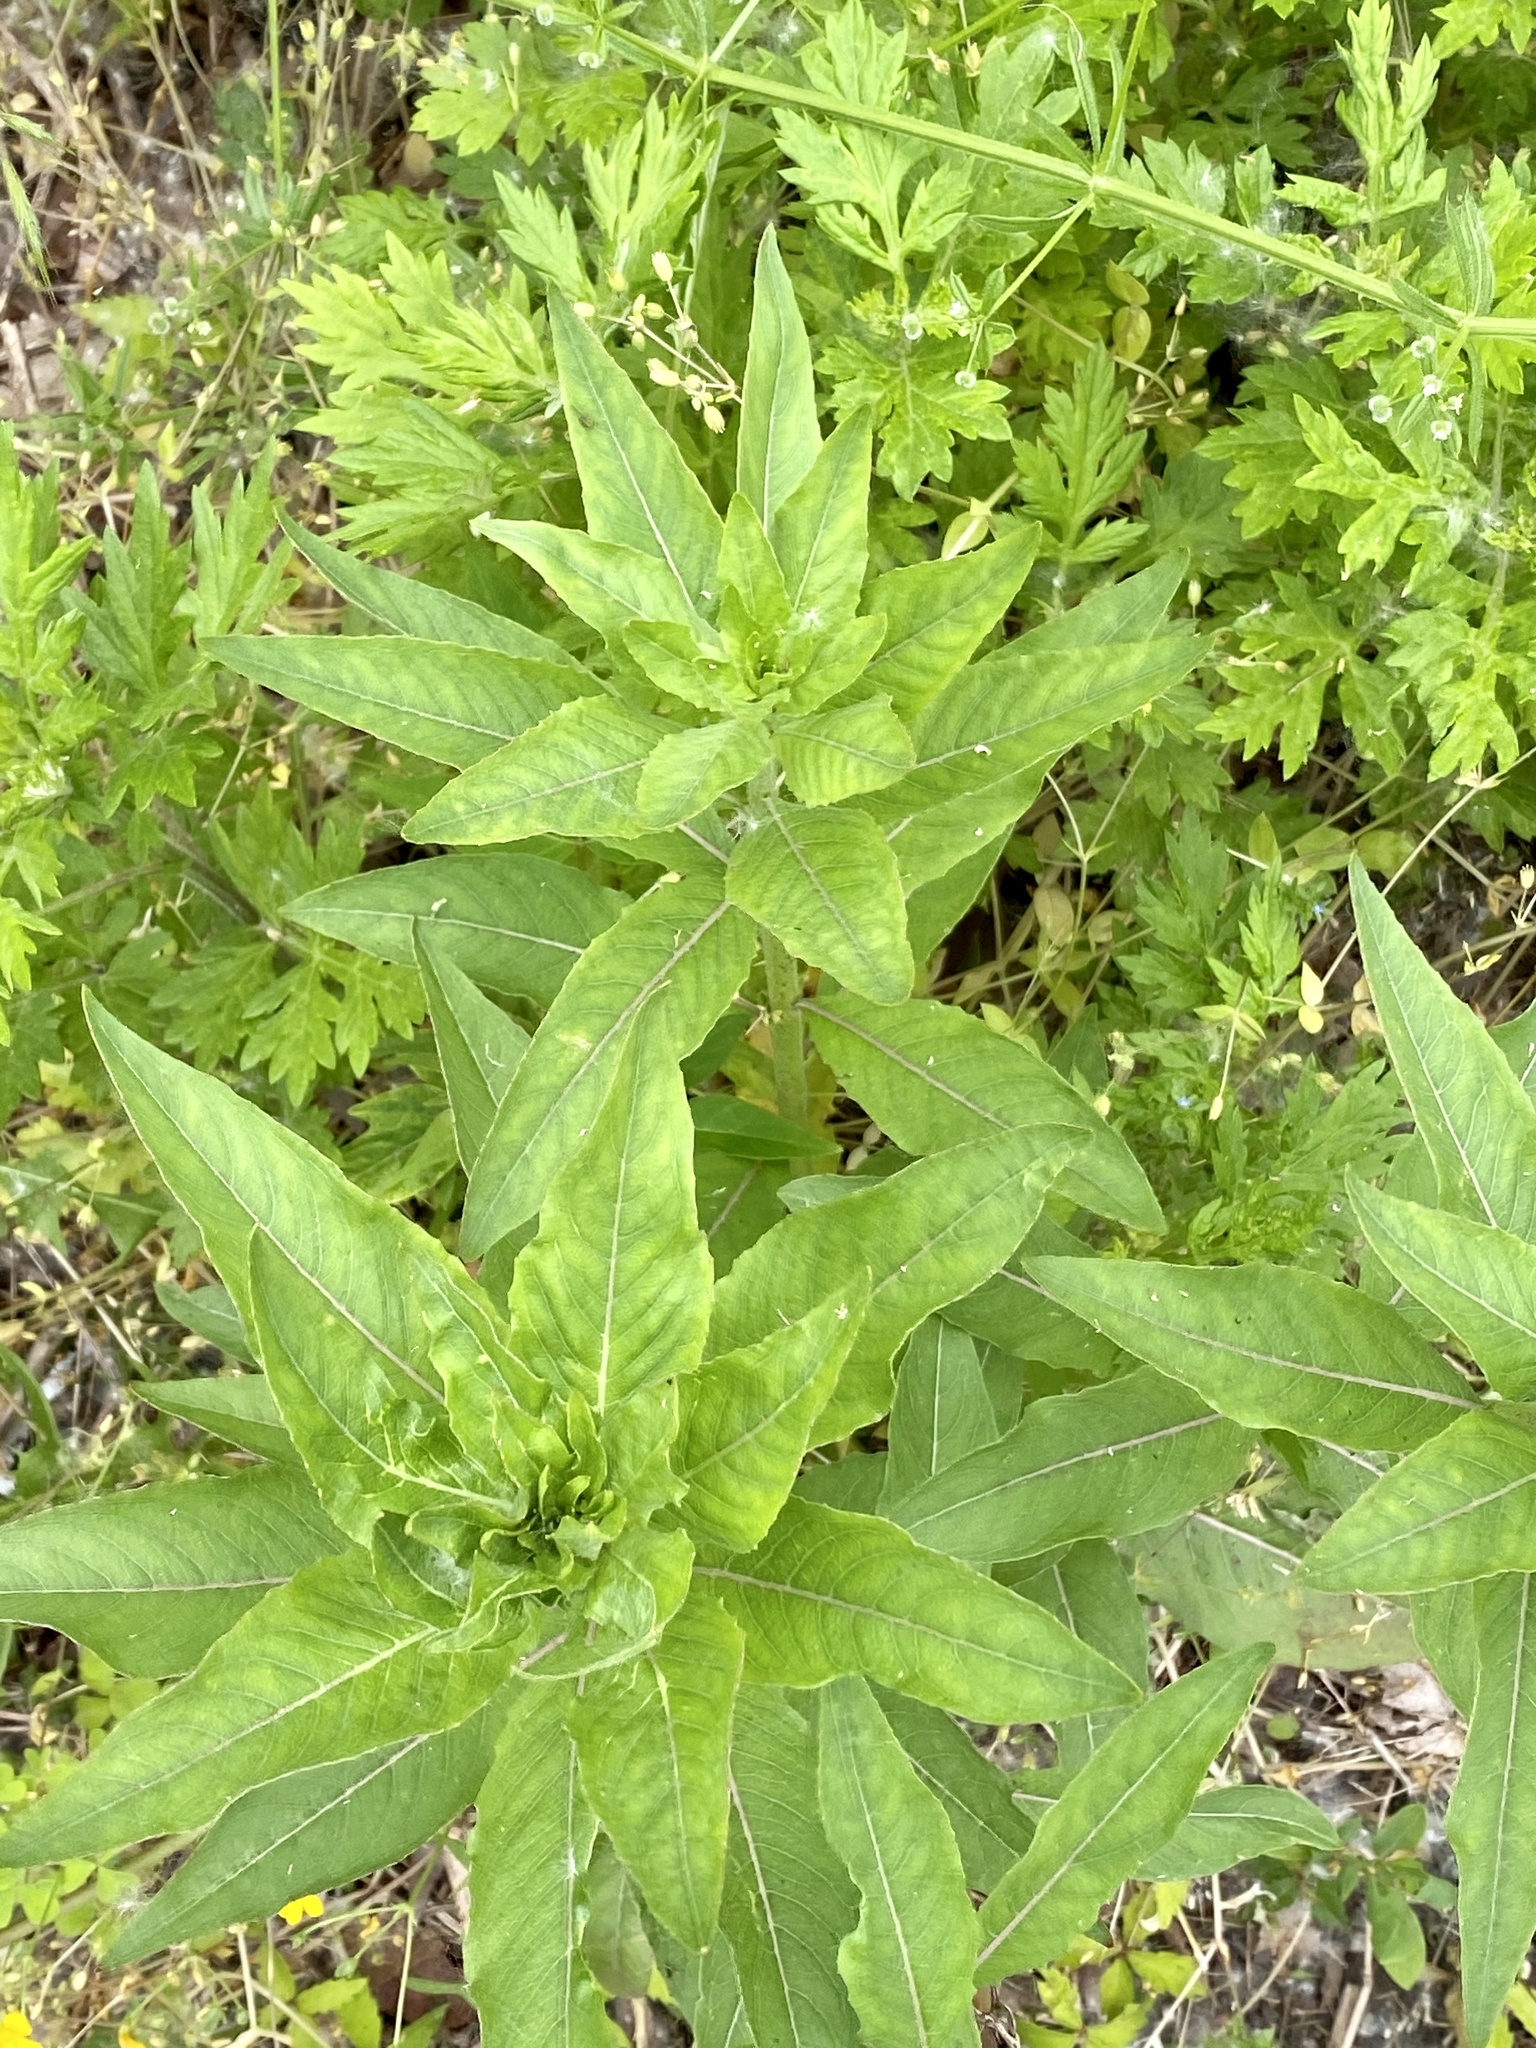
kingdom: Plantae
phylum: Tracheophyta
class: Magnoliopsida
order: Myrtales
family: Onagraceae
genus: Oenothera
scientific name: Oenothera biennis
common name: Common evening-primrose
